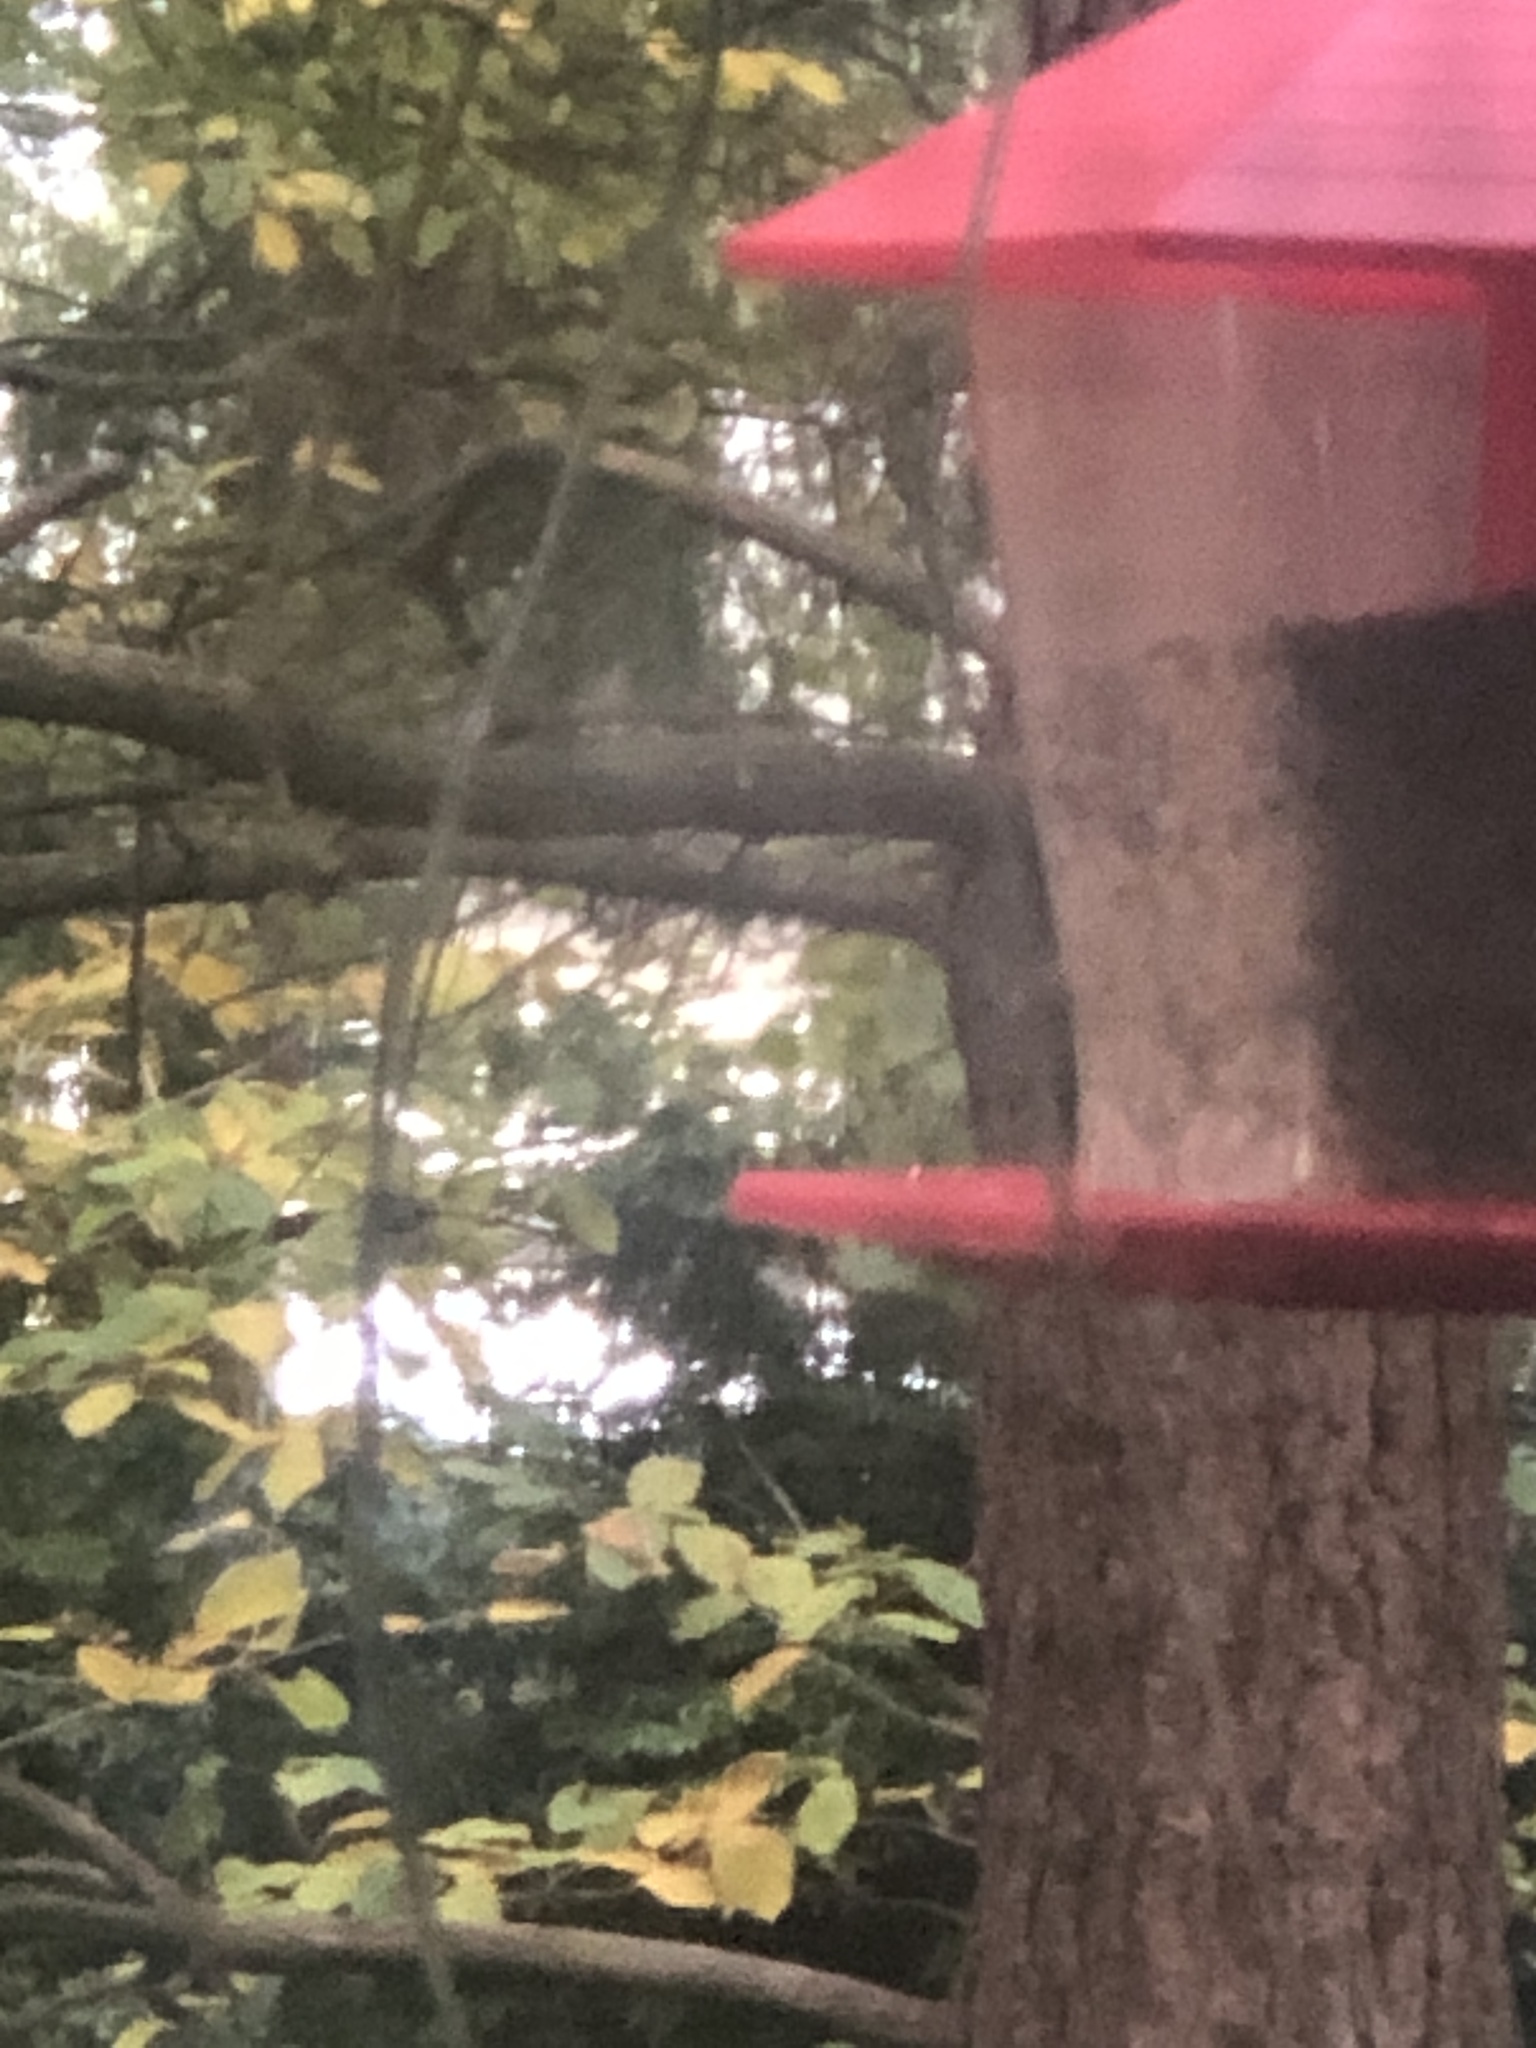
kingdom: Animalia
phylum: Chordata
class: Aves
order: Passeriformes
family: Passerellidae
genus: Junco
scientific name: Junco hyemalis
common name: Dark-eyed junco
